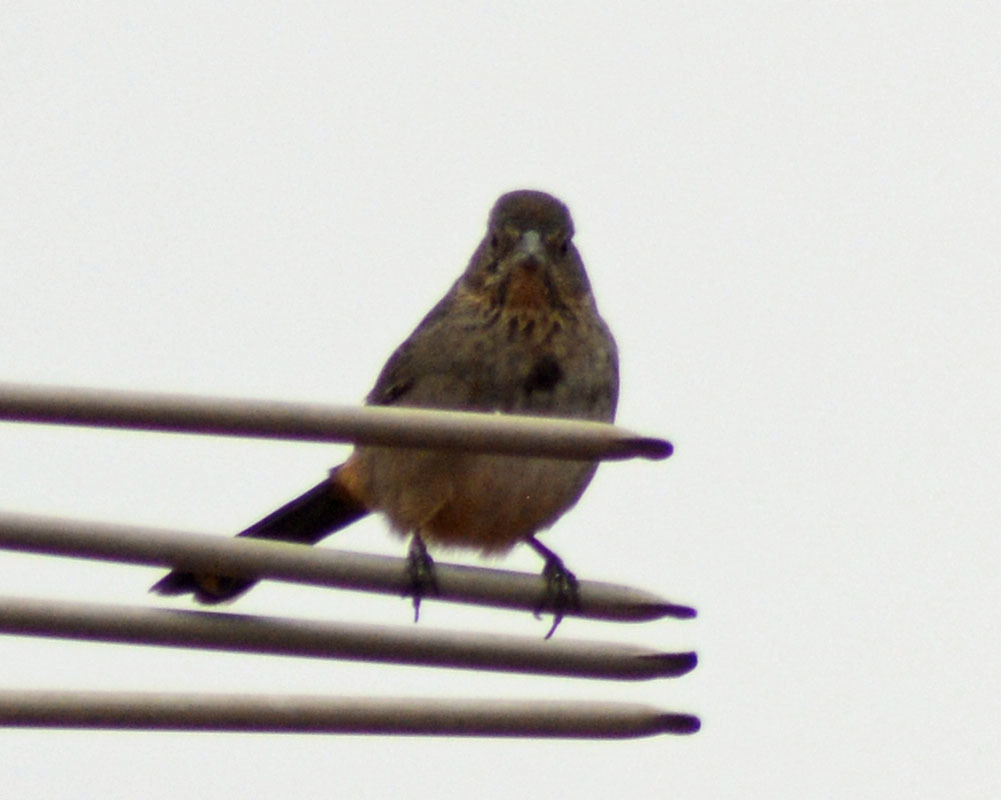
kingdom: Animalia
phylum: Chordata
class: Aves
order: Passeriformes
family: Passerellidae
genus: Melozone
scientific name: Melozone fusca
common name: Canyon towhee
